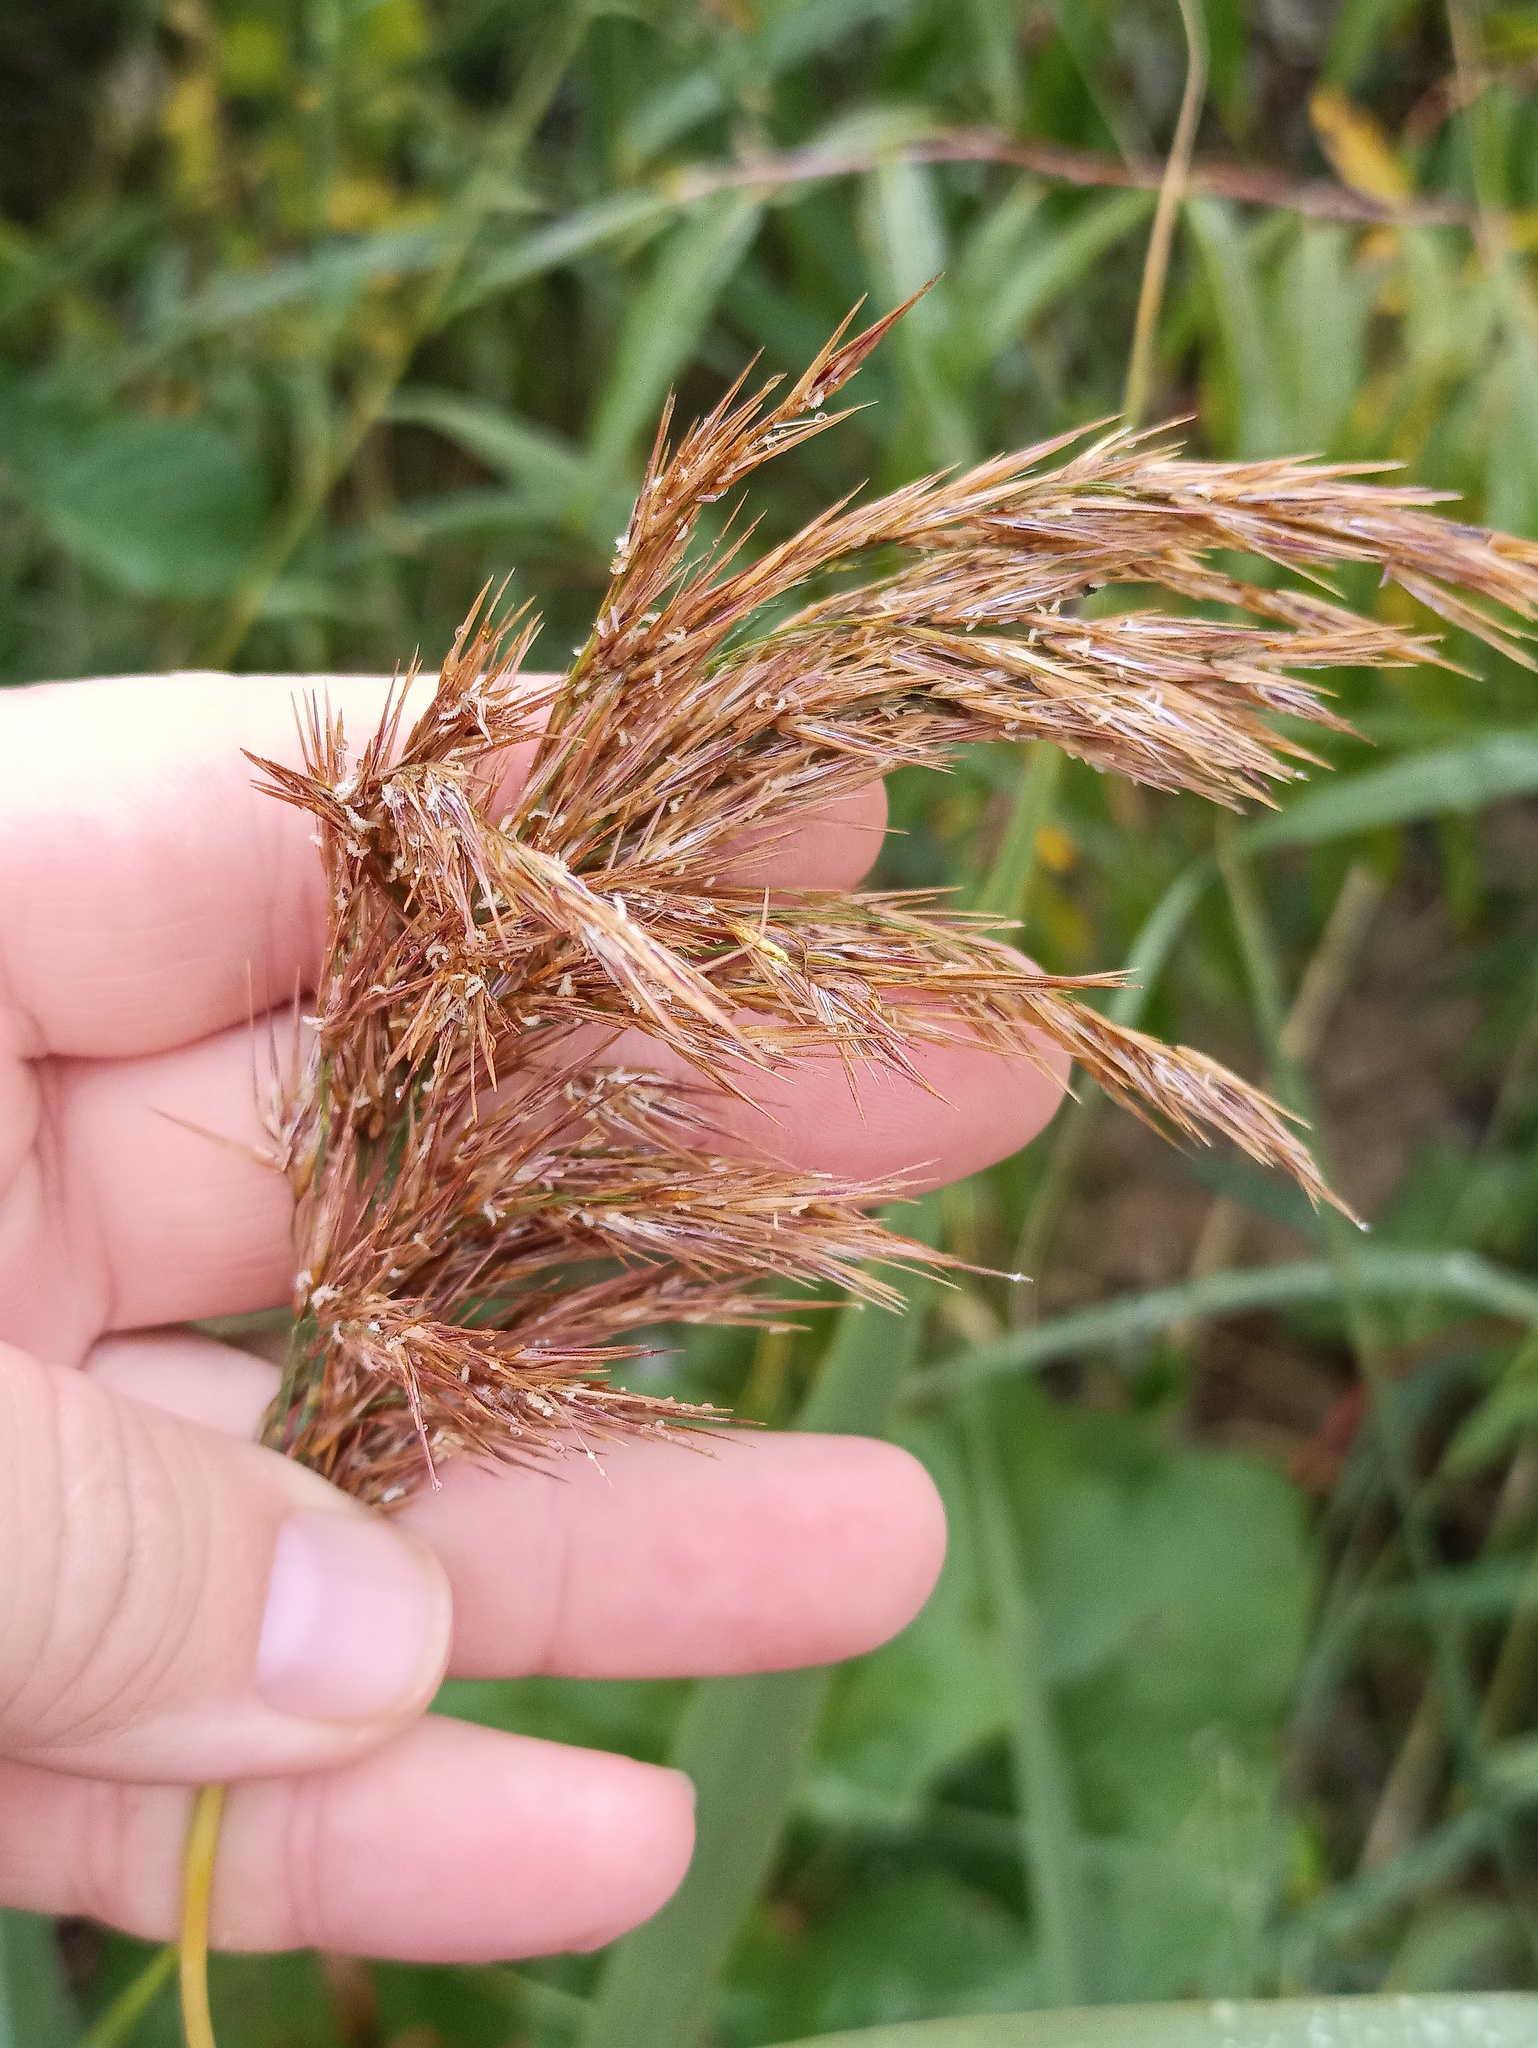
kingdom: Plantae
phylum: Tracheophyta
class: Liliopsida
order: Poales
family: Poaceae
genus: Phragmites
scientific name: Phragmites australis
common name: Common reed
